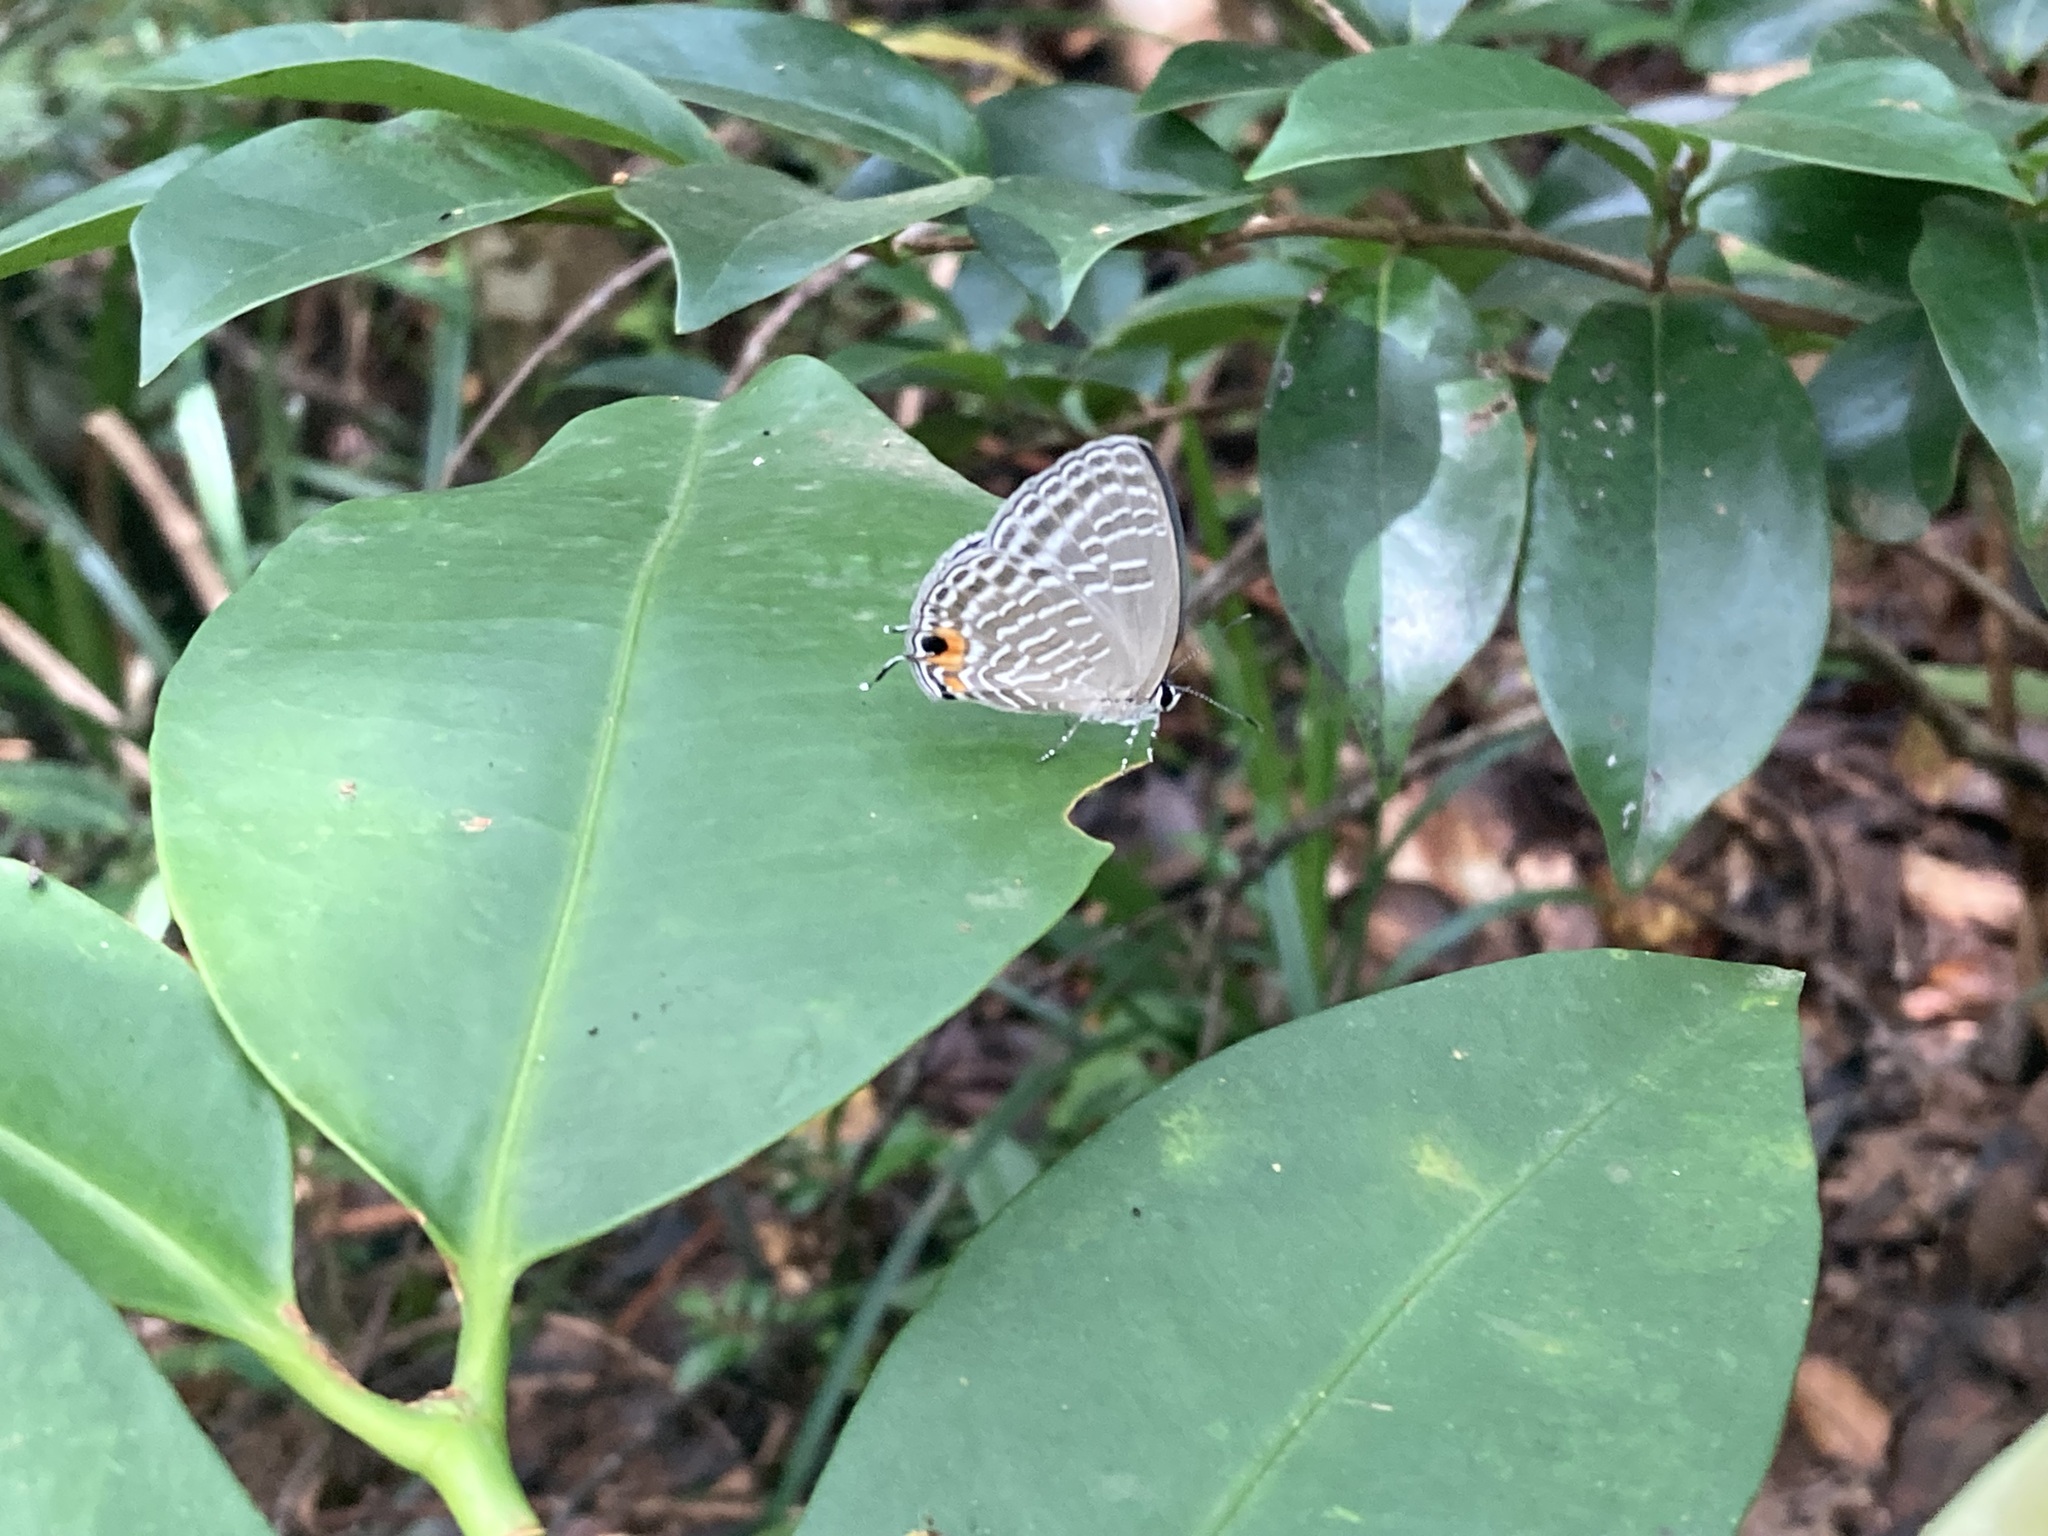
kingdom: Animalia
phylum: Arthropoda
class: Insecta
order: Lepidoptera
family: Lycaenidae
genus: Jamides
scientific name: Jamides alecto
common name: Metallic cerulean
